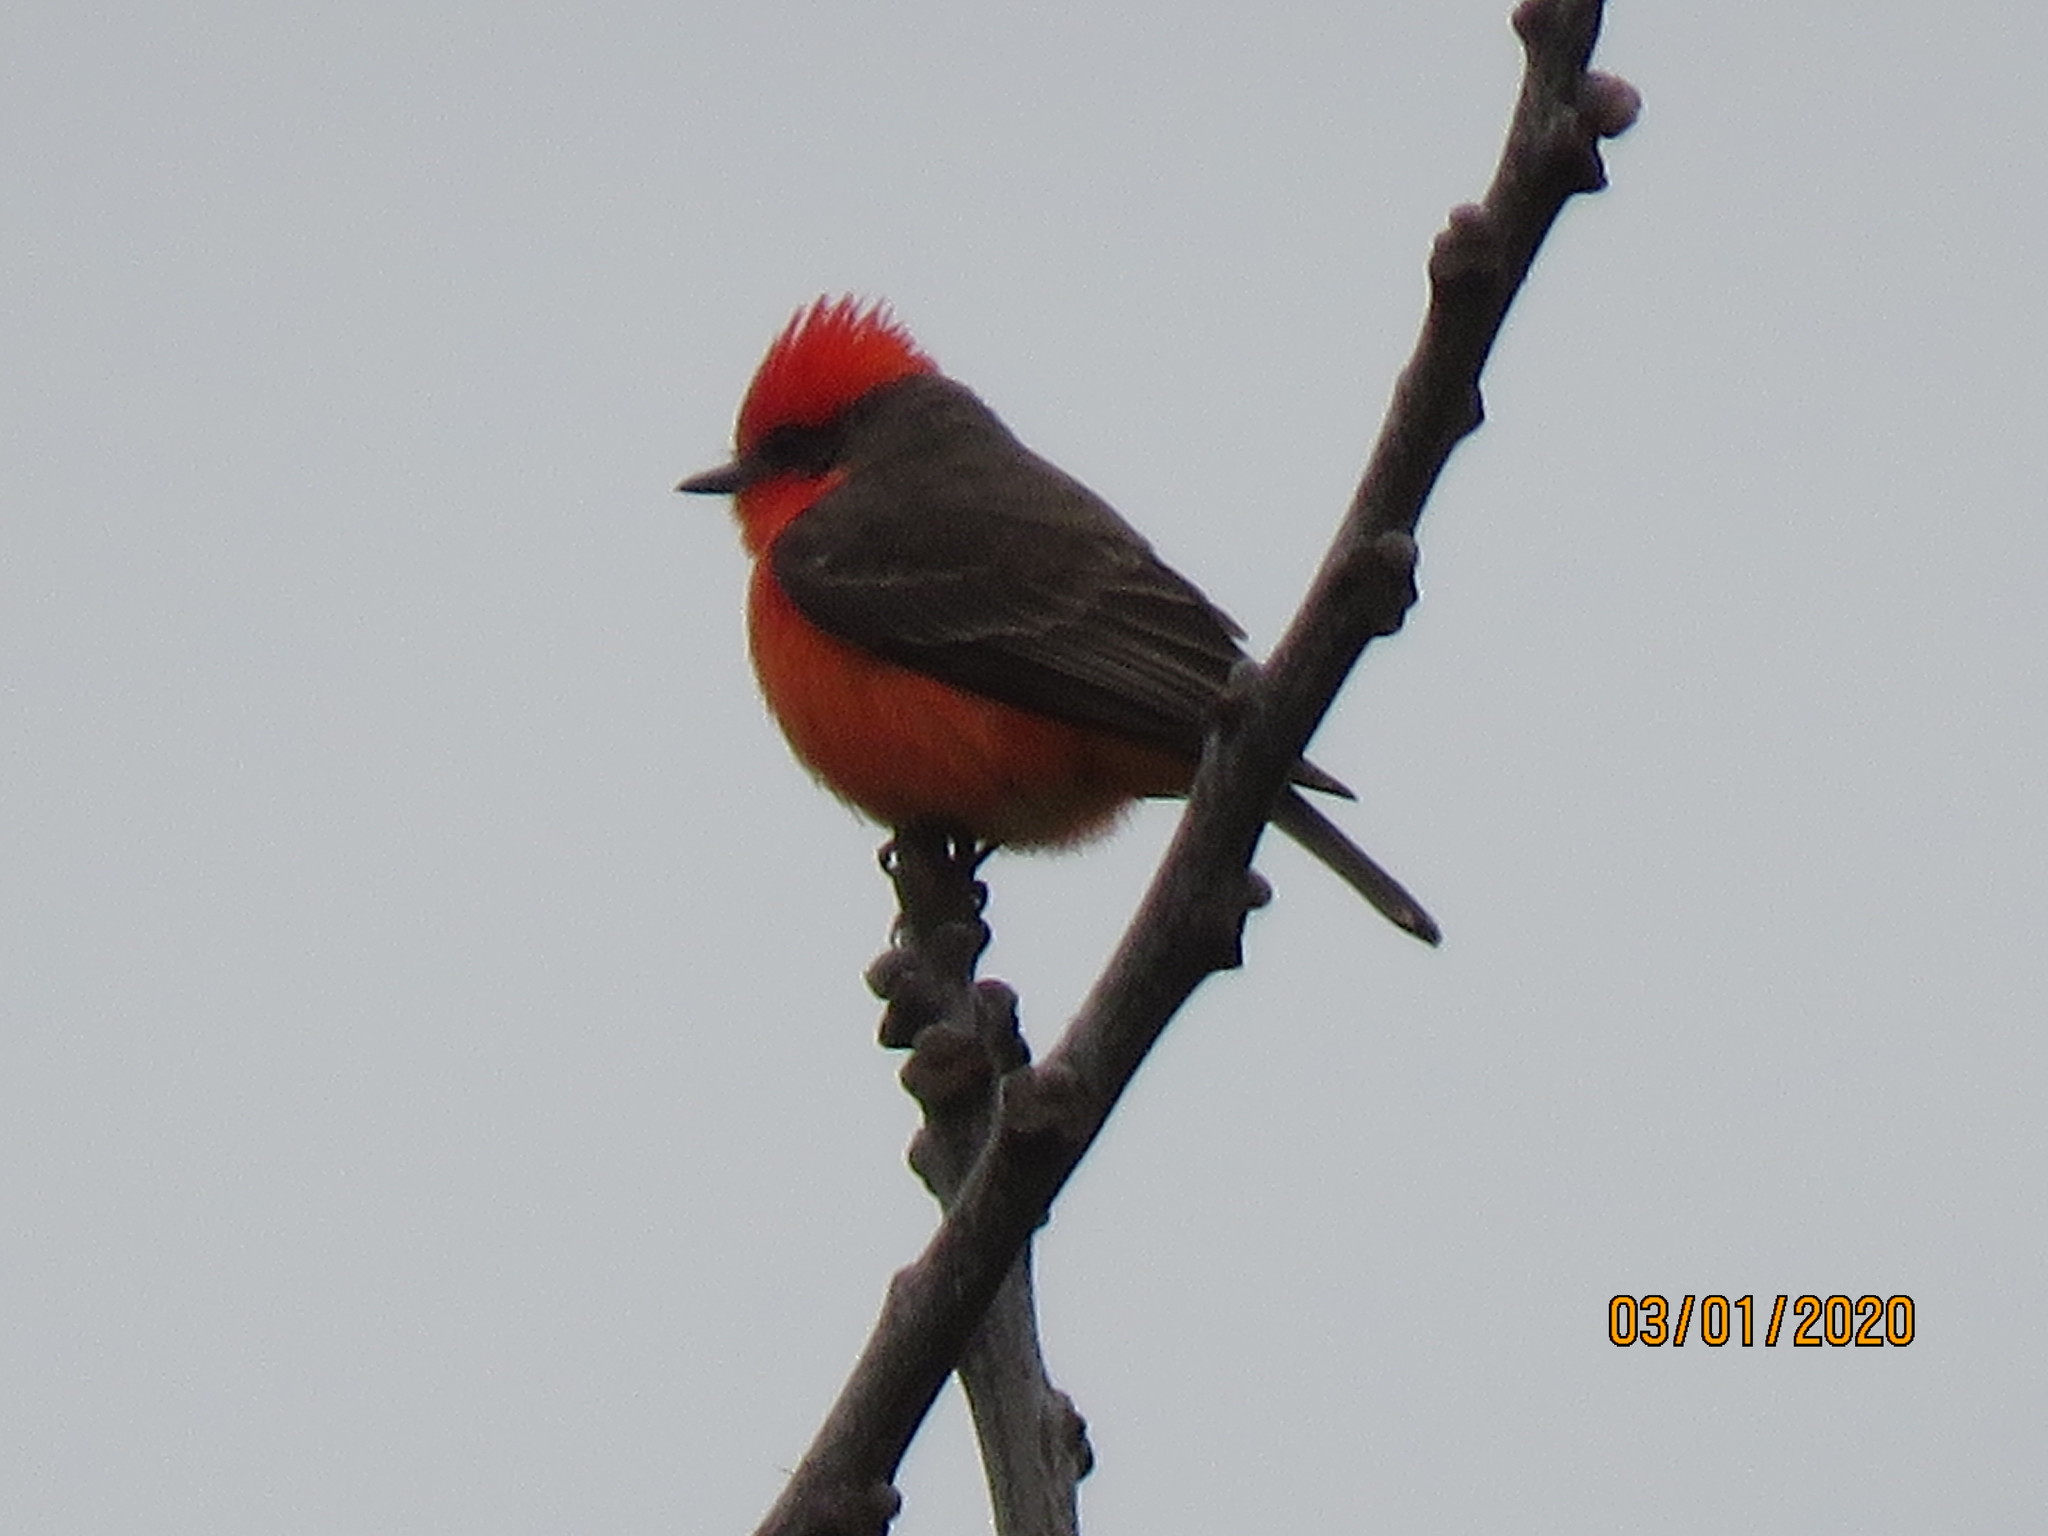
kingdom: Animalia
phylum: Chordata
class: Aves
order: Passeriformes
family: Tyrannidae
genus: Pyrocephalus
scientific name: Pyrocephalus rubinus
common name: Vermilion flycatcher
